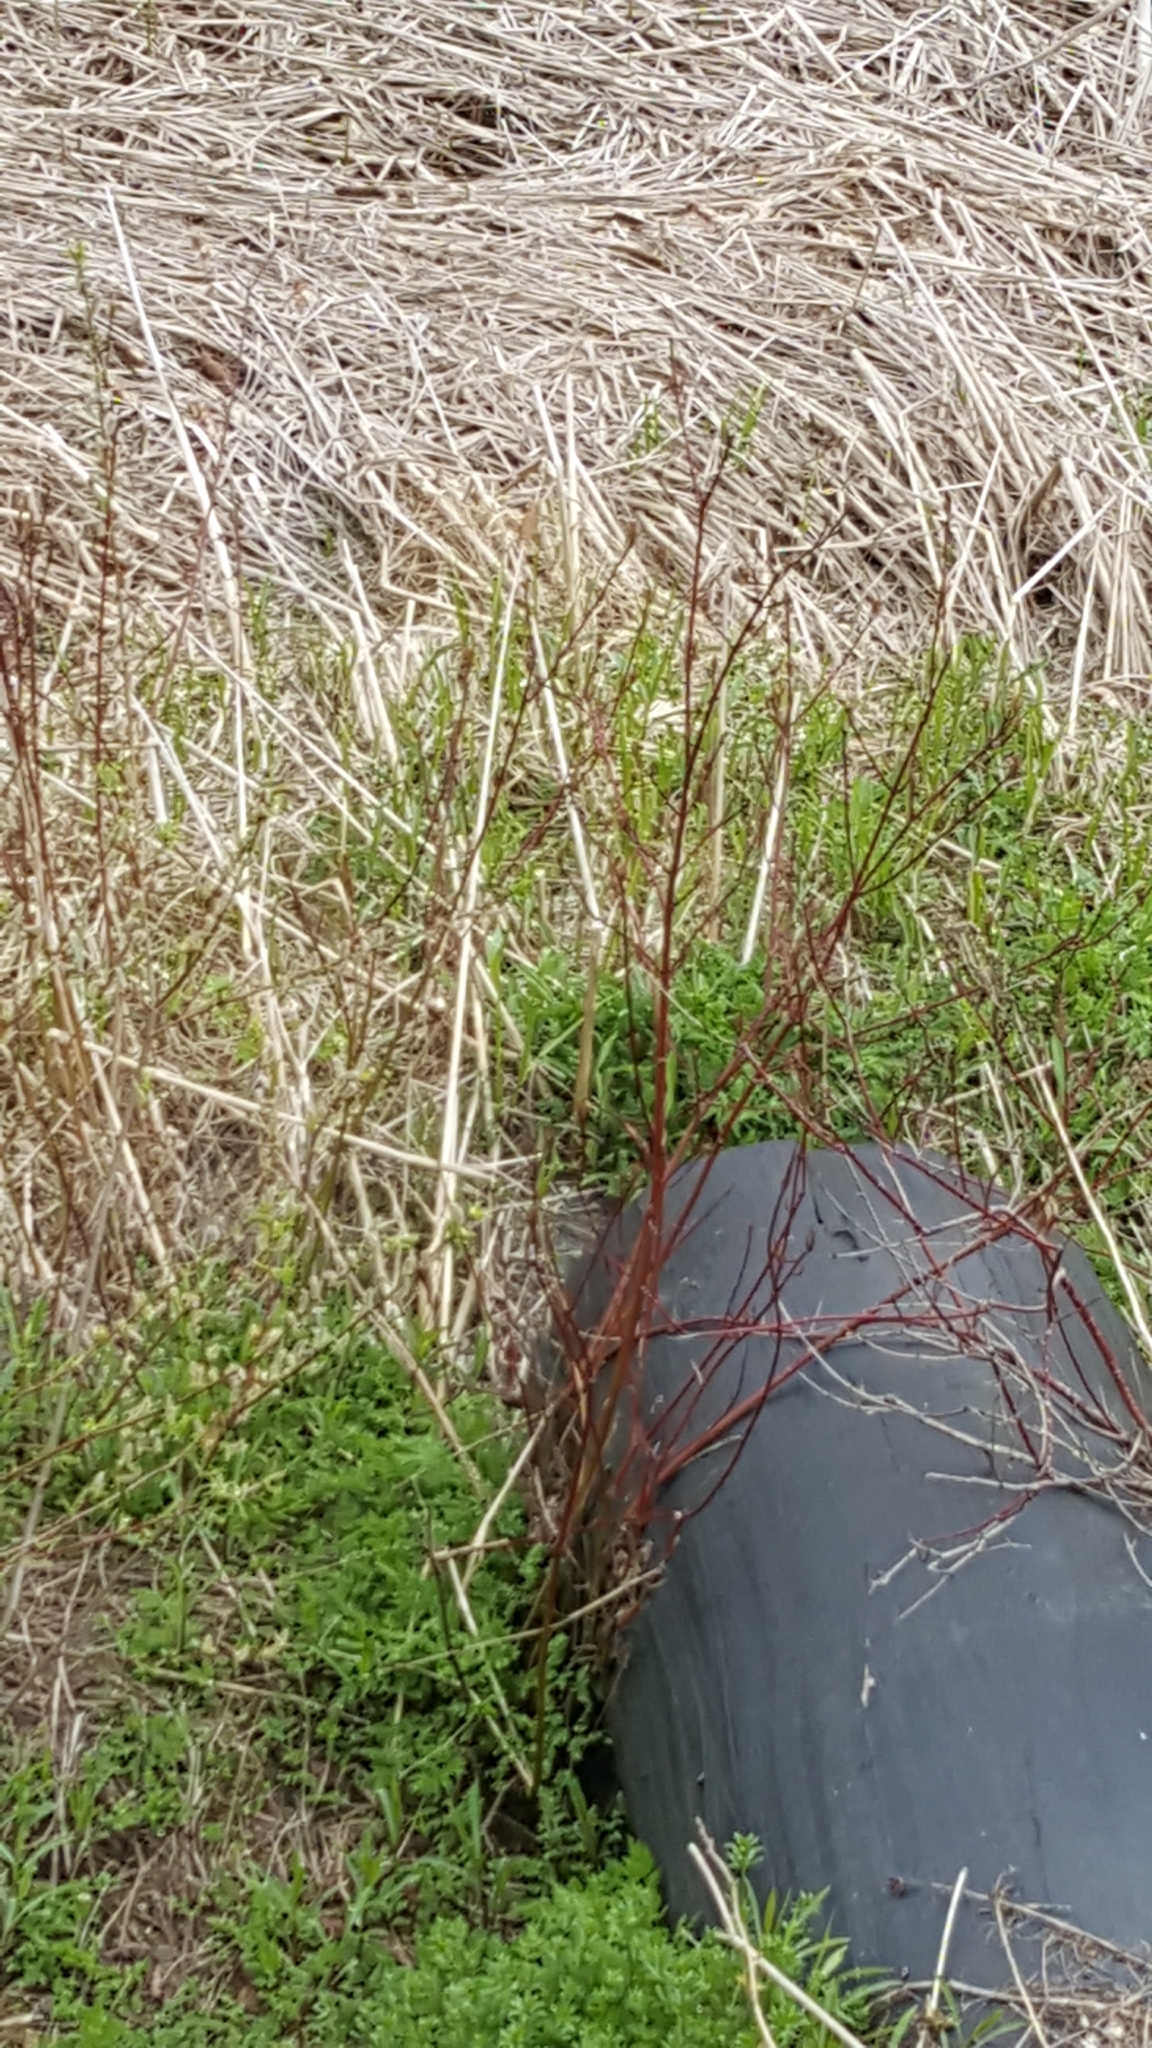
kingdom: Plantae
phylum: Tracheophyta
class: Magnoliopsida
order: Cornales
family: Cornaceae
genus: Cornus
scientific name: Cornus sericea
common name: Red-osier dogwood
